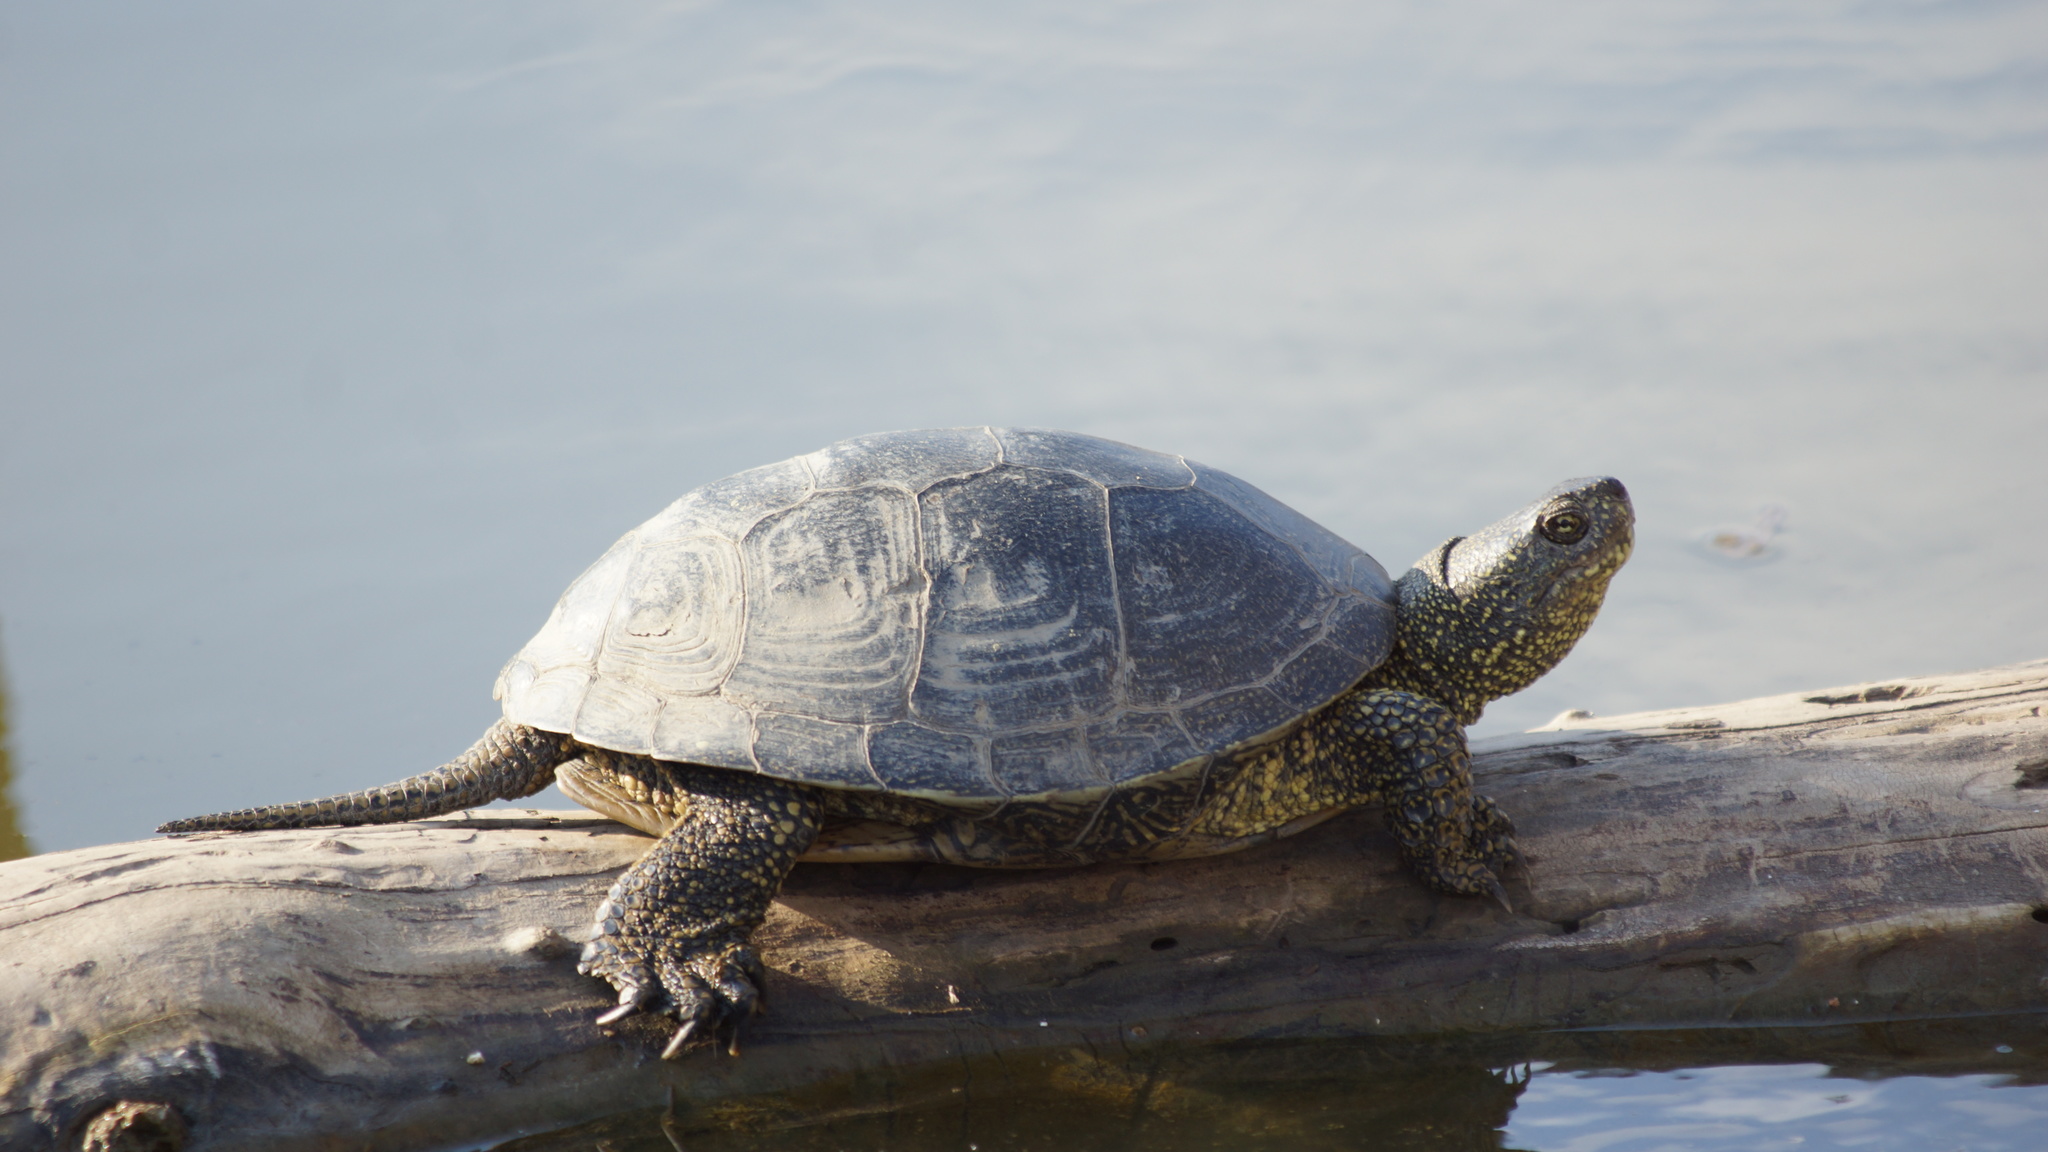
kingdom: Animalia
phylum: Chordata
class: Testudines
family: Emydidae
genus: Emys
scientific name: Emys orbicularis
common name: European pond turtle
